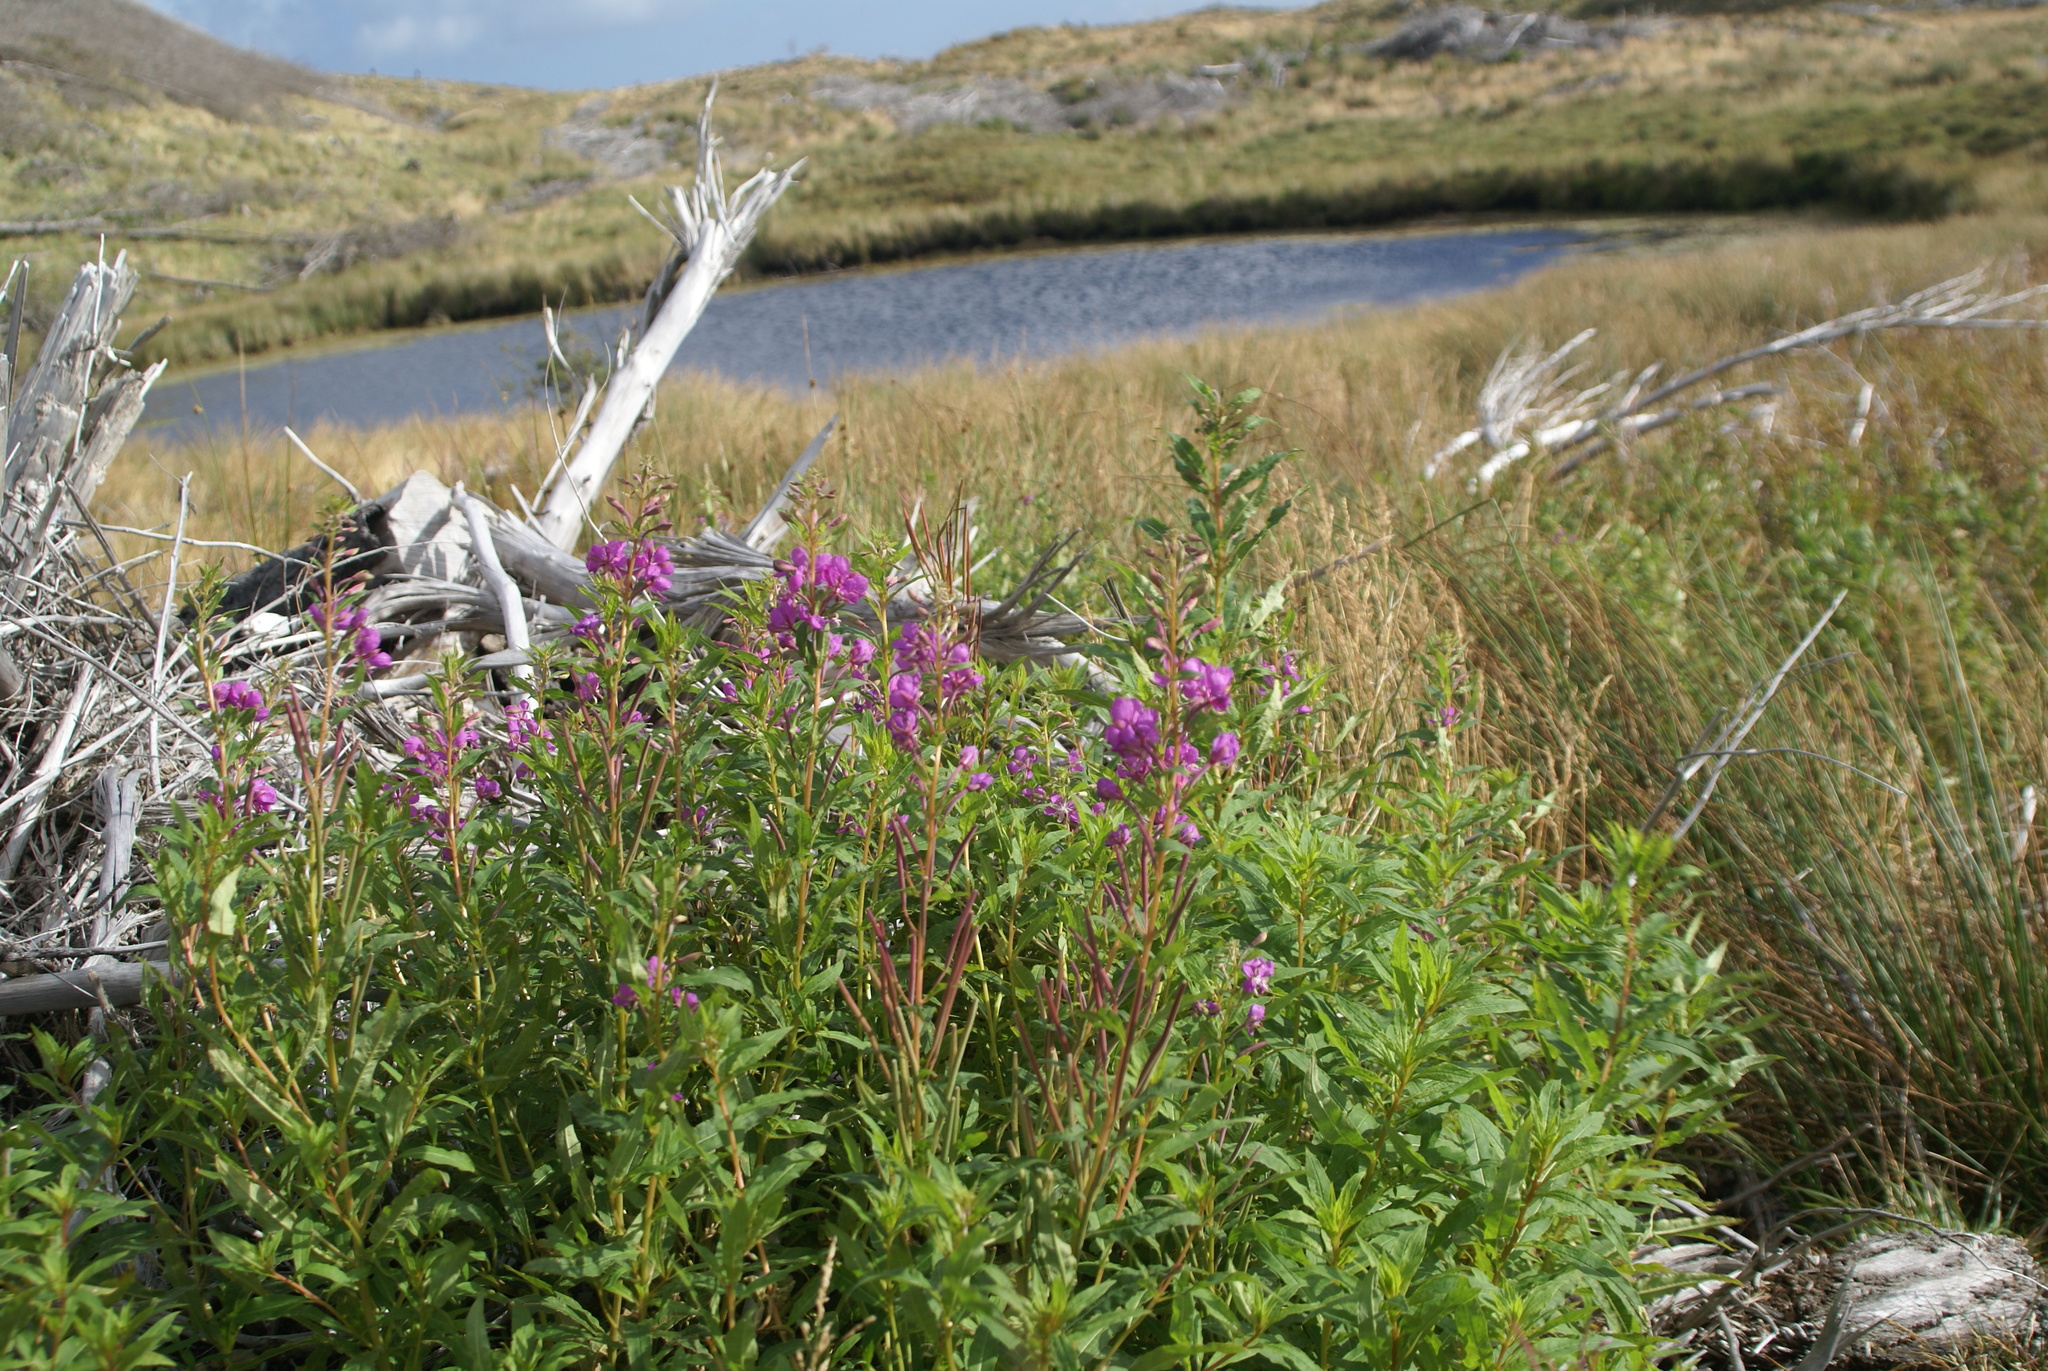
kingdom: Plantae
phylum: Tracheophyta
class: Magnoliopsida
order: Myrtales
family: Onagraceae
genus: Chamaenerion
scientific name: Chamaenerion angustifolium
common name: Fireweed
